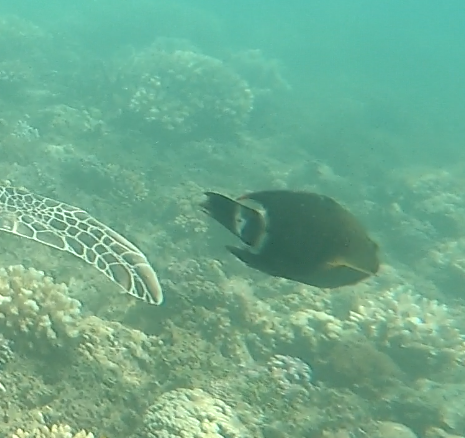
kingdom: Animalia
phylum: Chordata
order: Perciformes
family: Labridae
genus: Cheilinus
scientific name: Cheilinus trilobatus
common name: Tripletail maori wrasse
